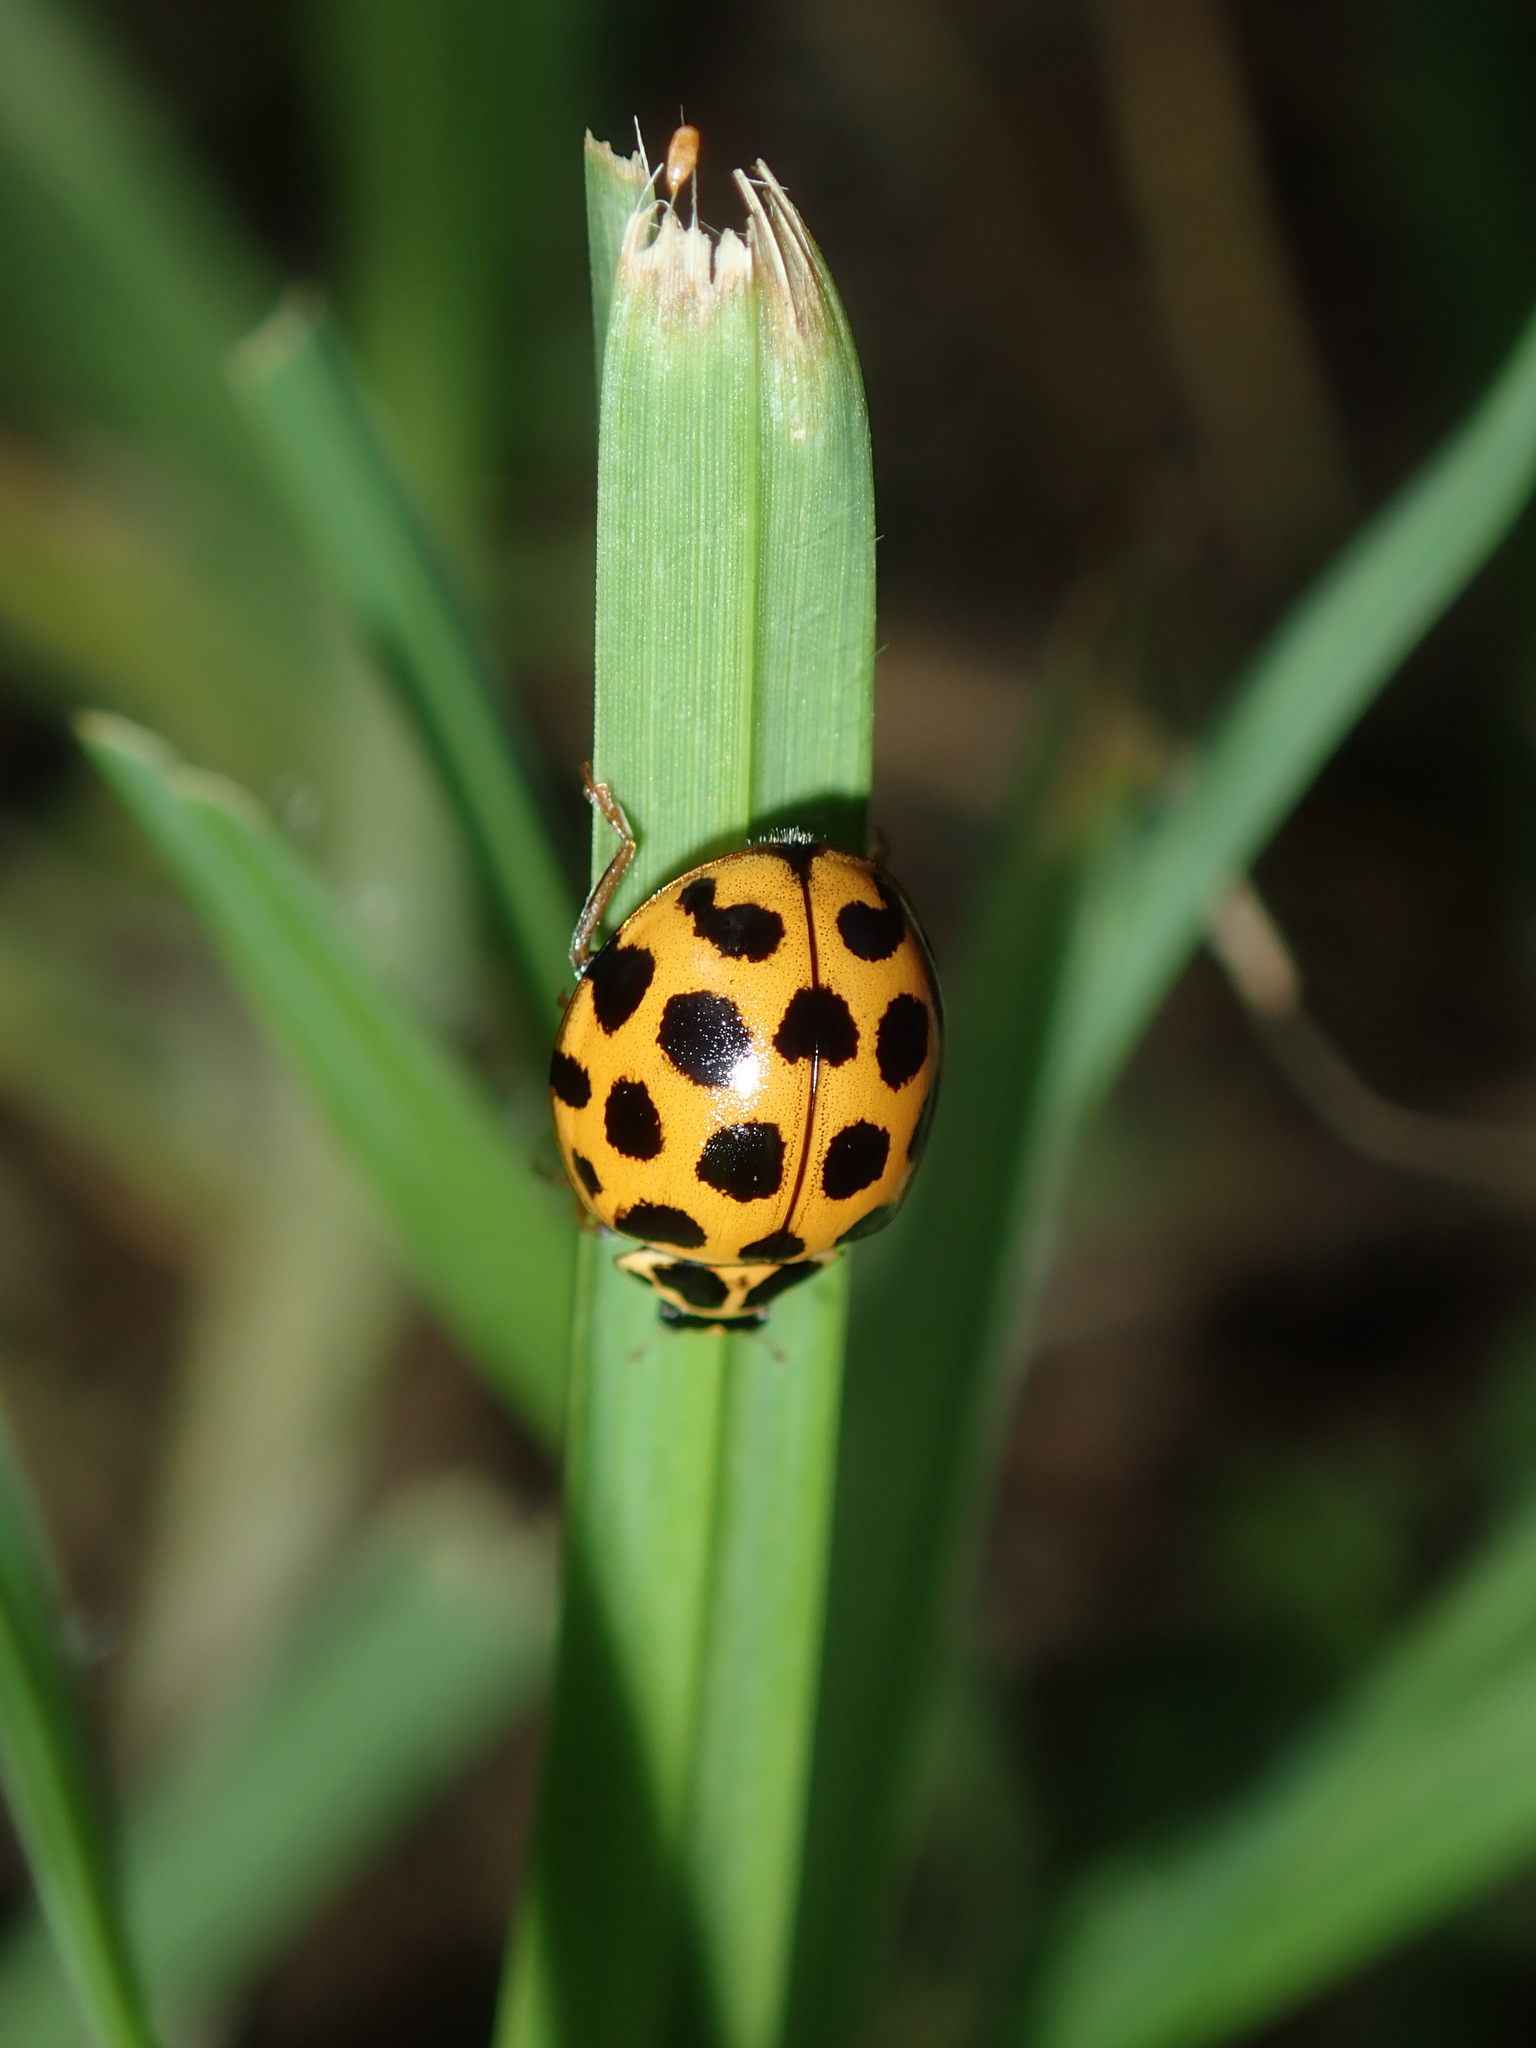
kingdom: Animalia
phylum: Arthropoda
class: Insecta
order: Coleoptera
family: Coccinellidae
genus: Harmonia
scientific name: Harmonia conformis
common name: Common spotted ladybird beetle
